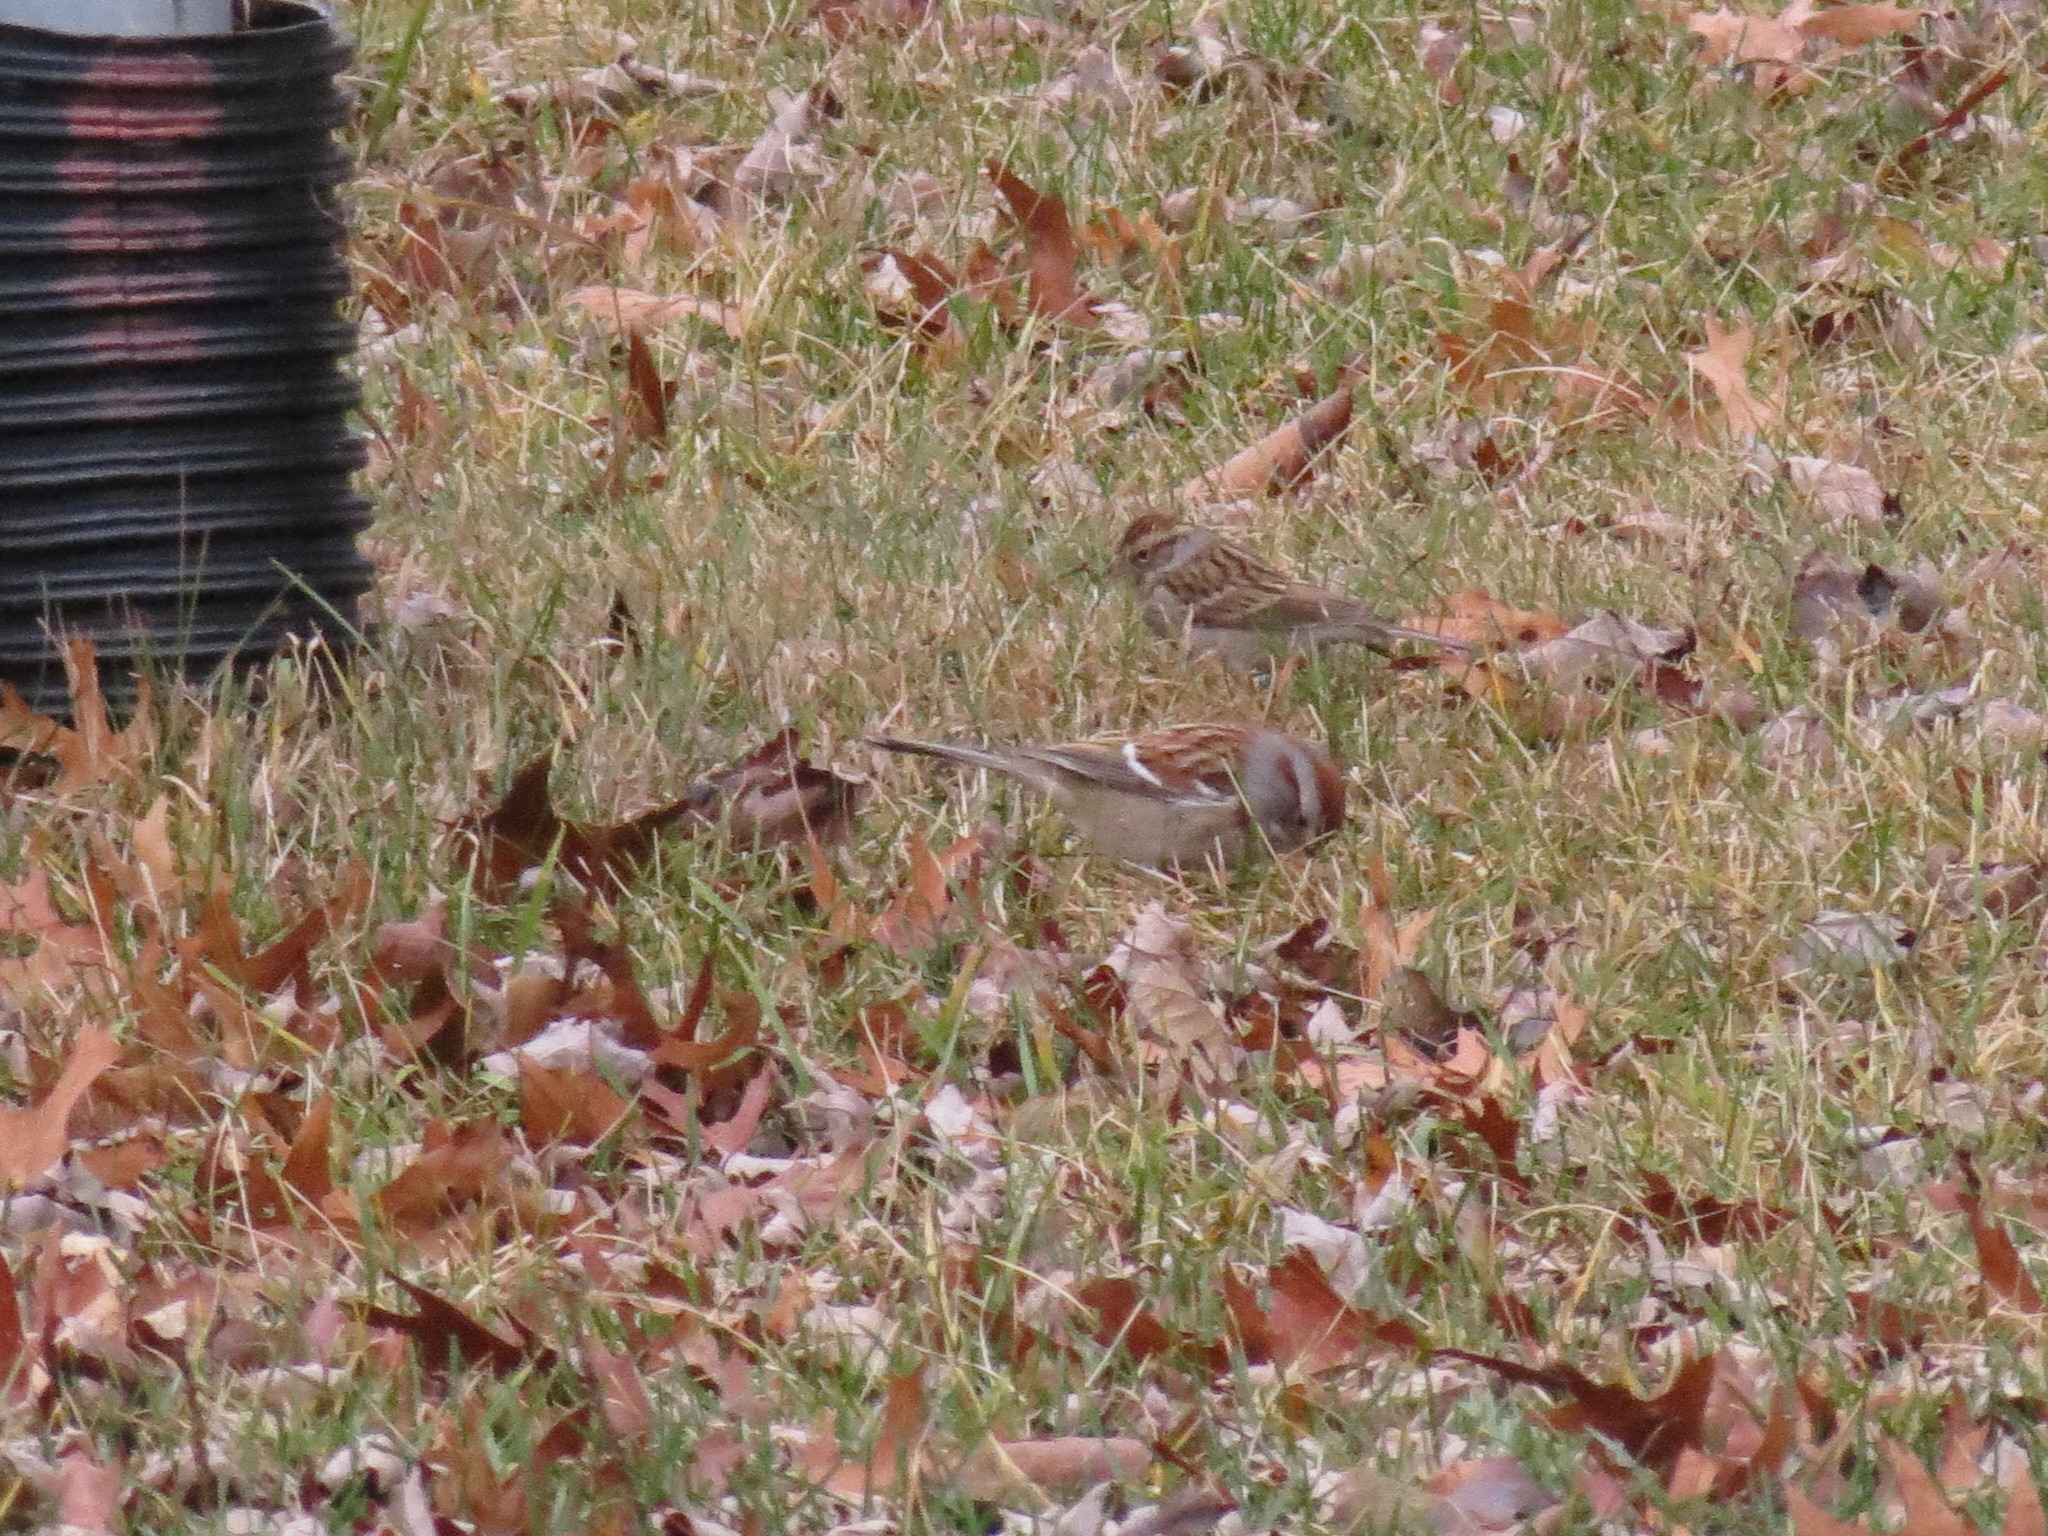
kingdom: Animalia
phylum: Chordata
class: Aves
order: Passeriformes
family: Passerellidae
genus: Spizella
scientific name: Spizella passerina
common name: Chipping sparrow
